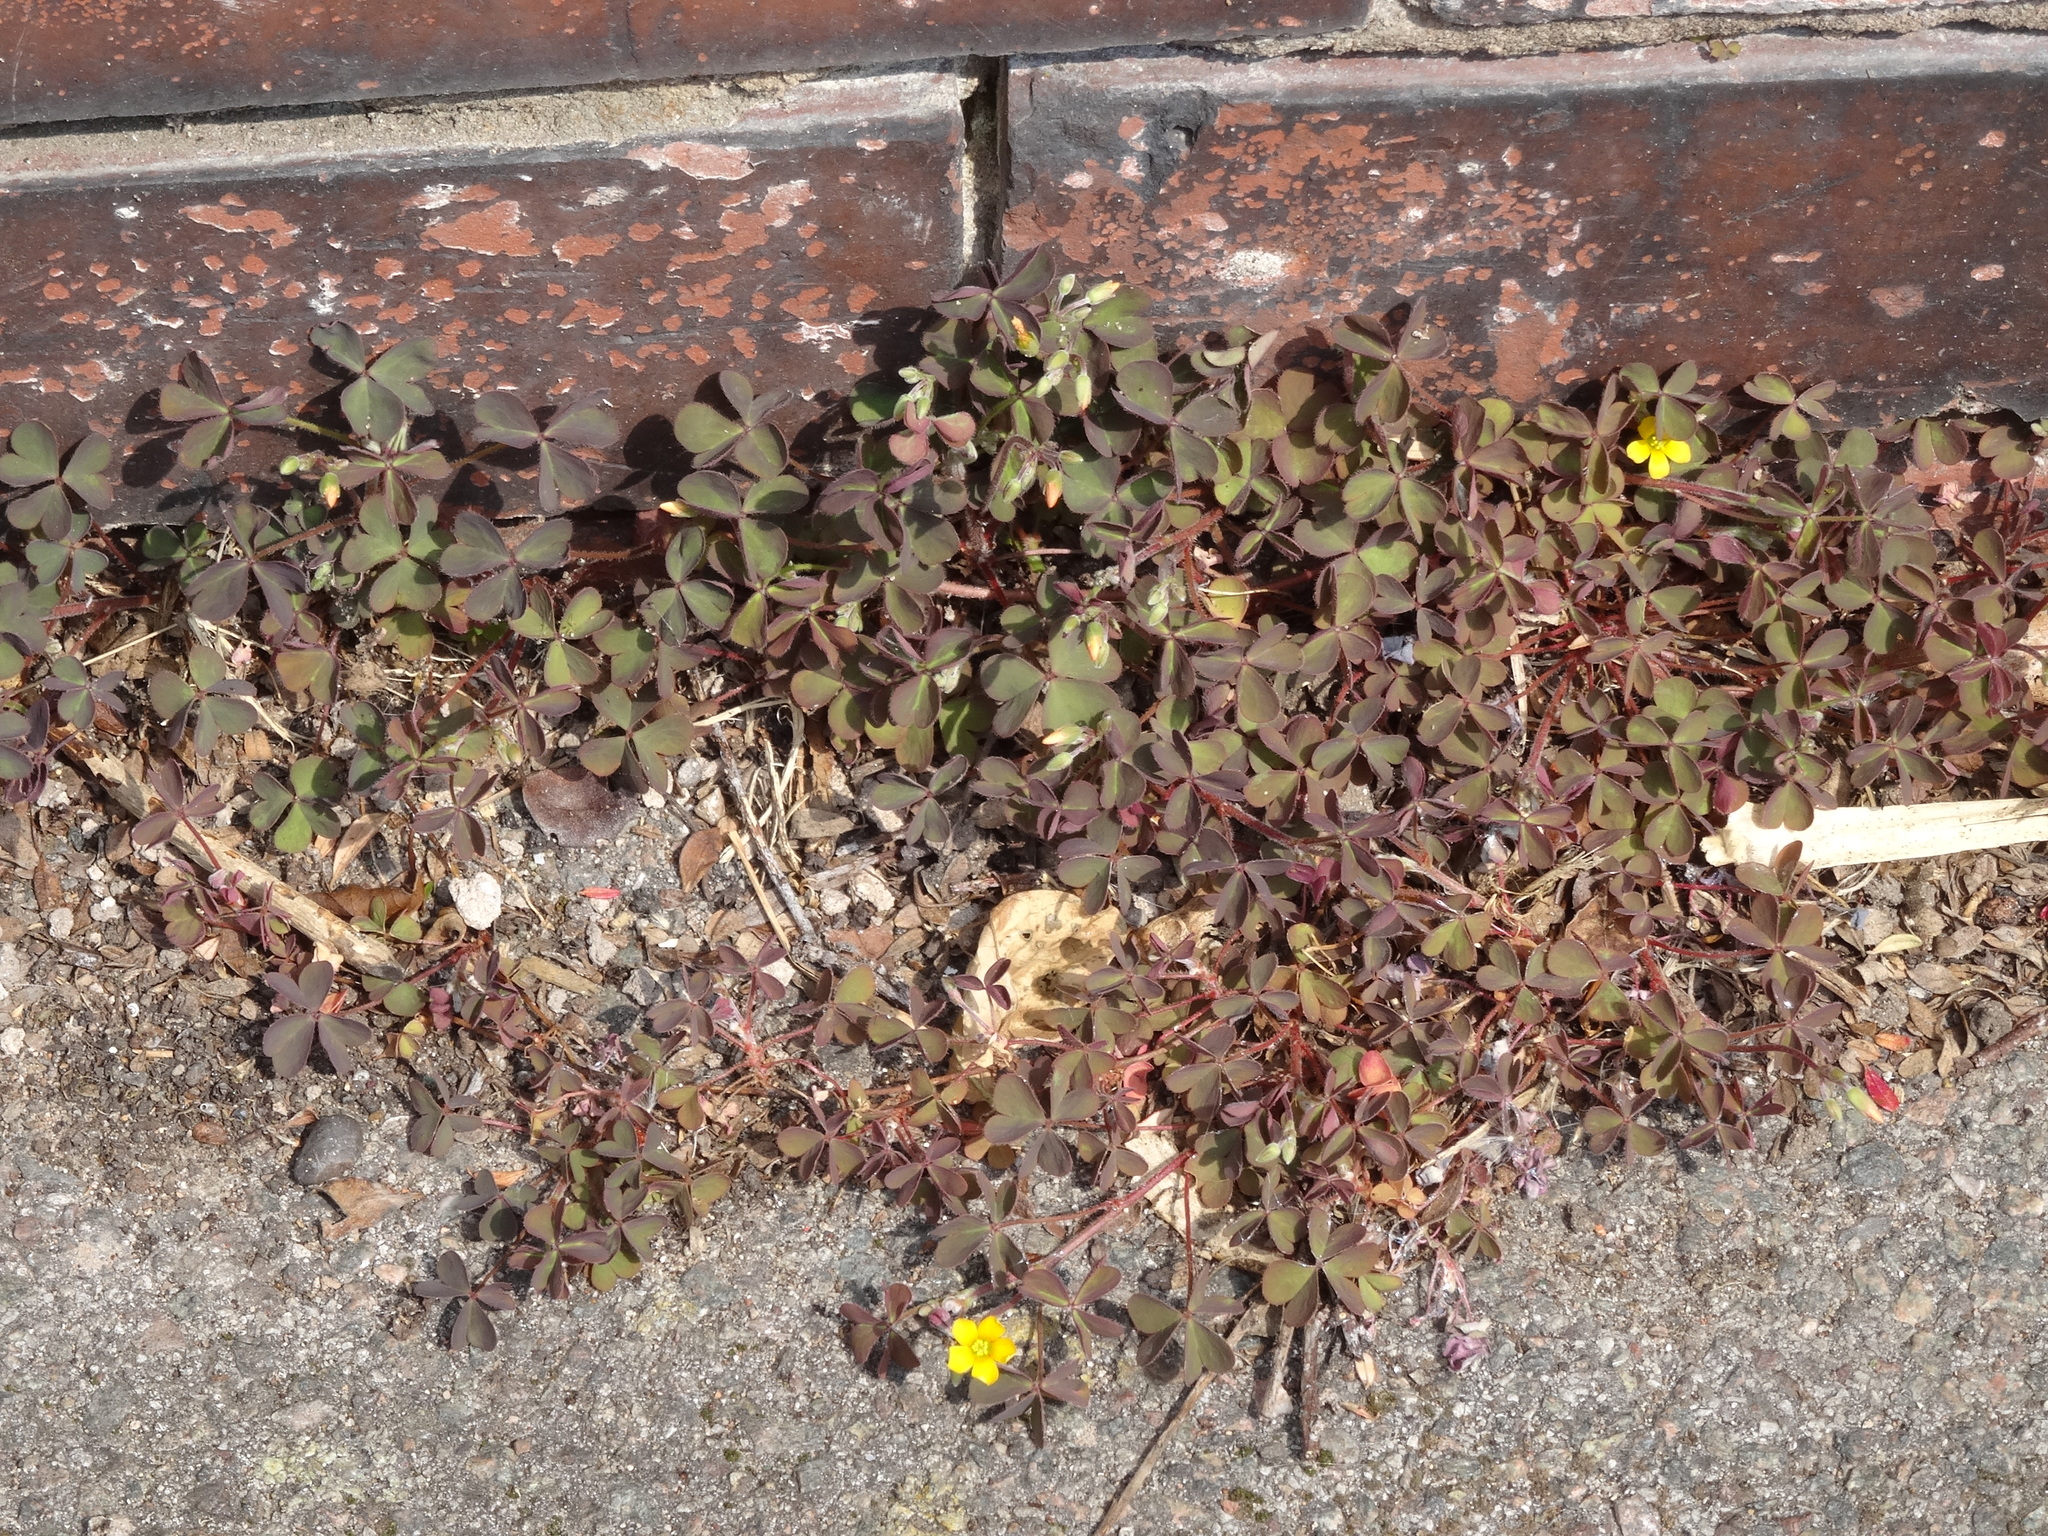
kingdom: Plantae
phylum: Tracheophyta
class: Magnoliopsida
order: Oxalidales
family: Oxalidaceae
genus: Oxalis
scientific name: Oxalis corniculata
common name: Procumbent yellow-sorrel
